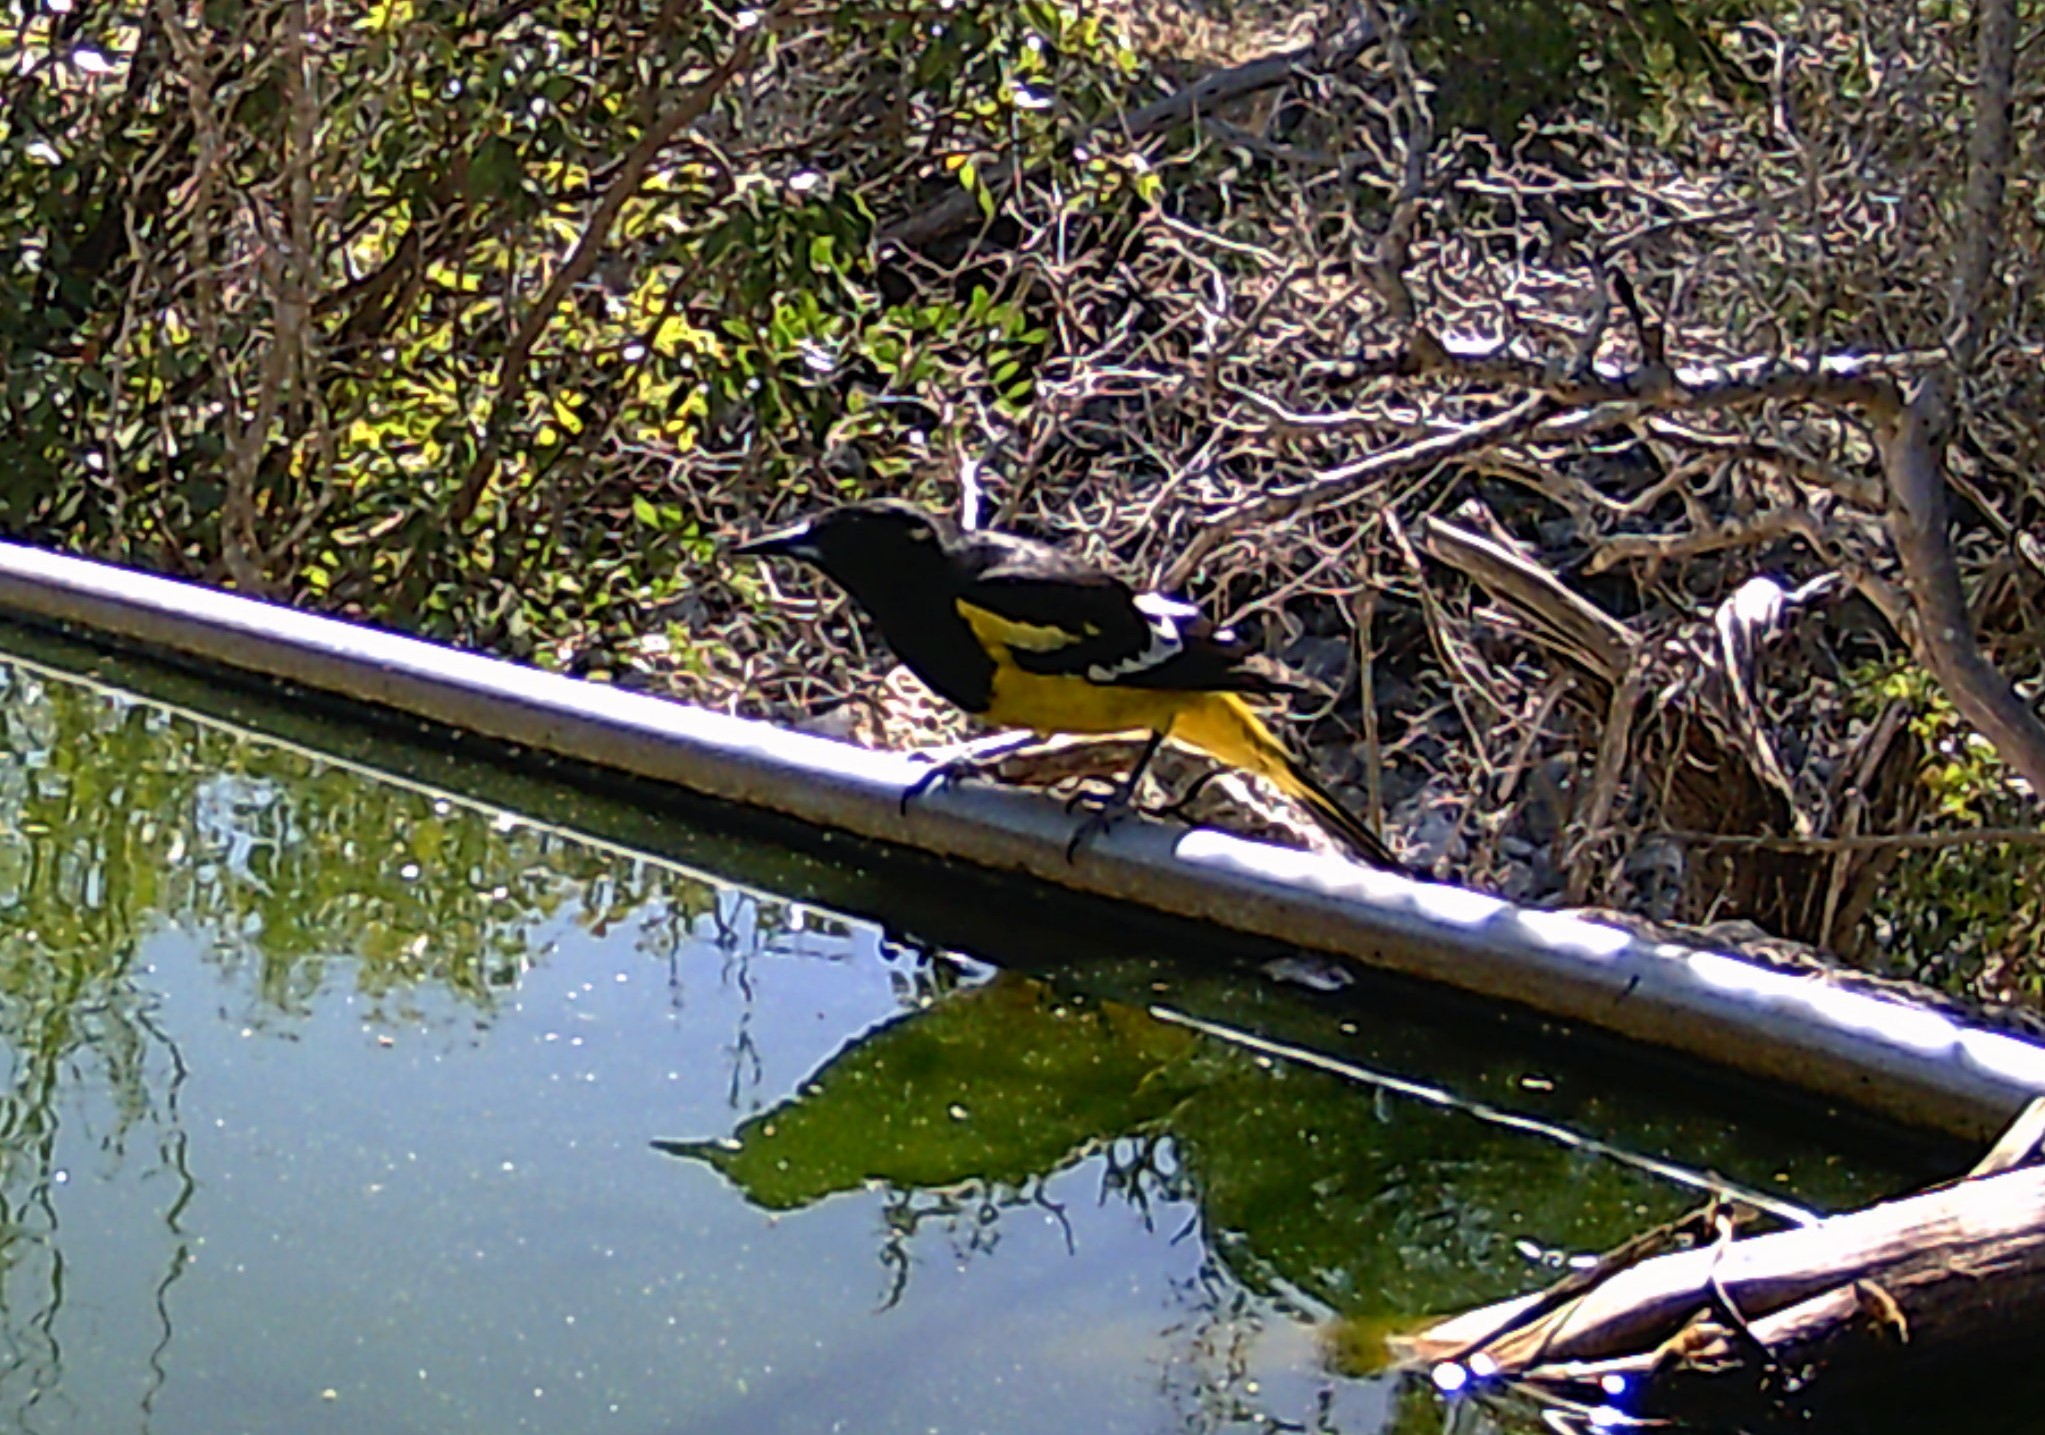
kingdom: Animalia
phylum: Chordata
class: Aves
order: Passeriformes
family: Icteridae
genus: Icterus
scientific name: Icterus parisorum
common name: Scott's oriole
